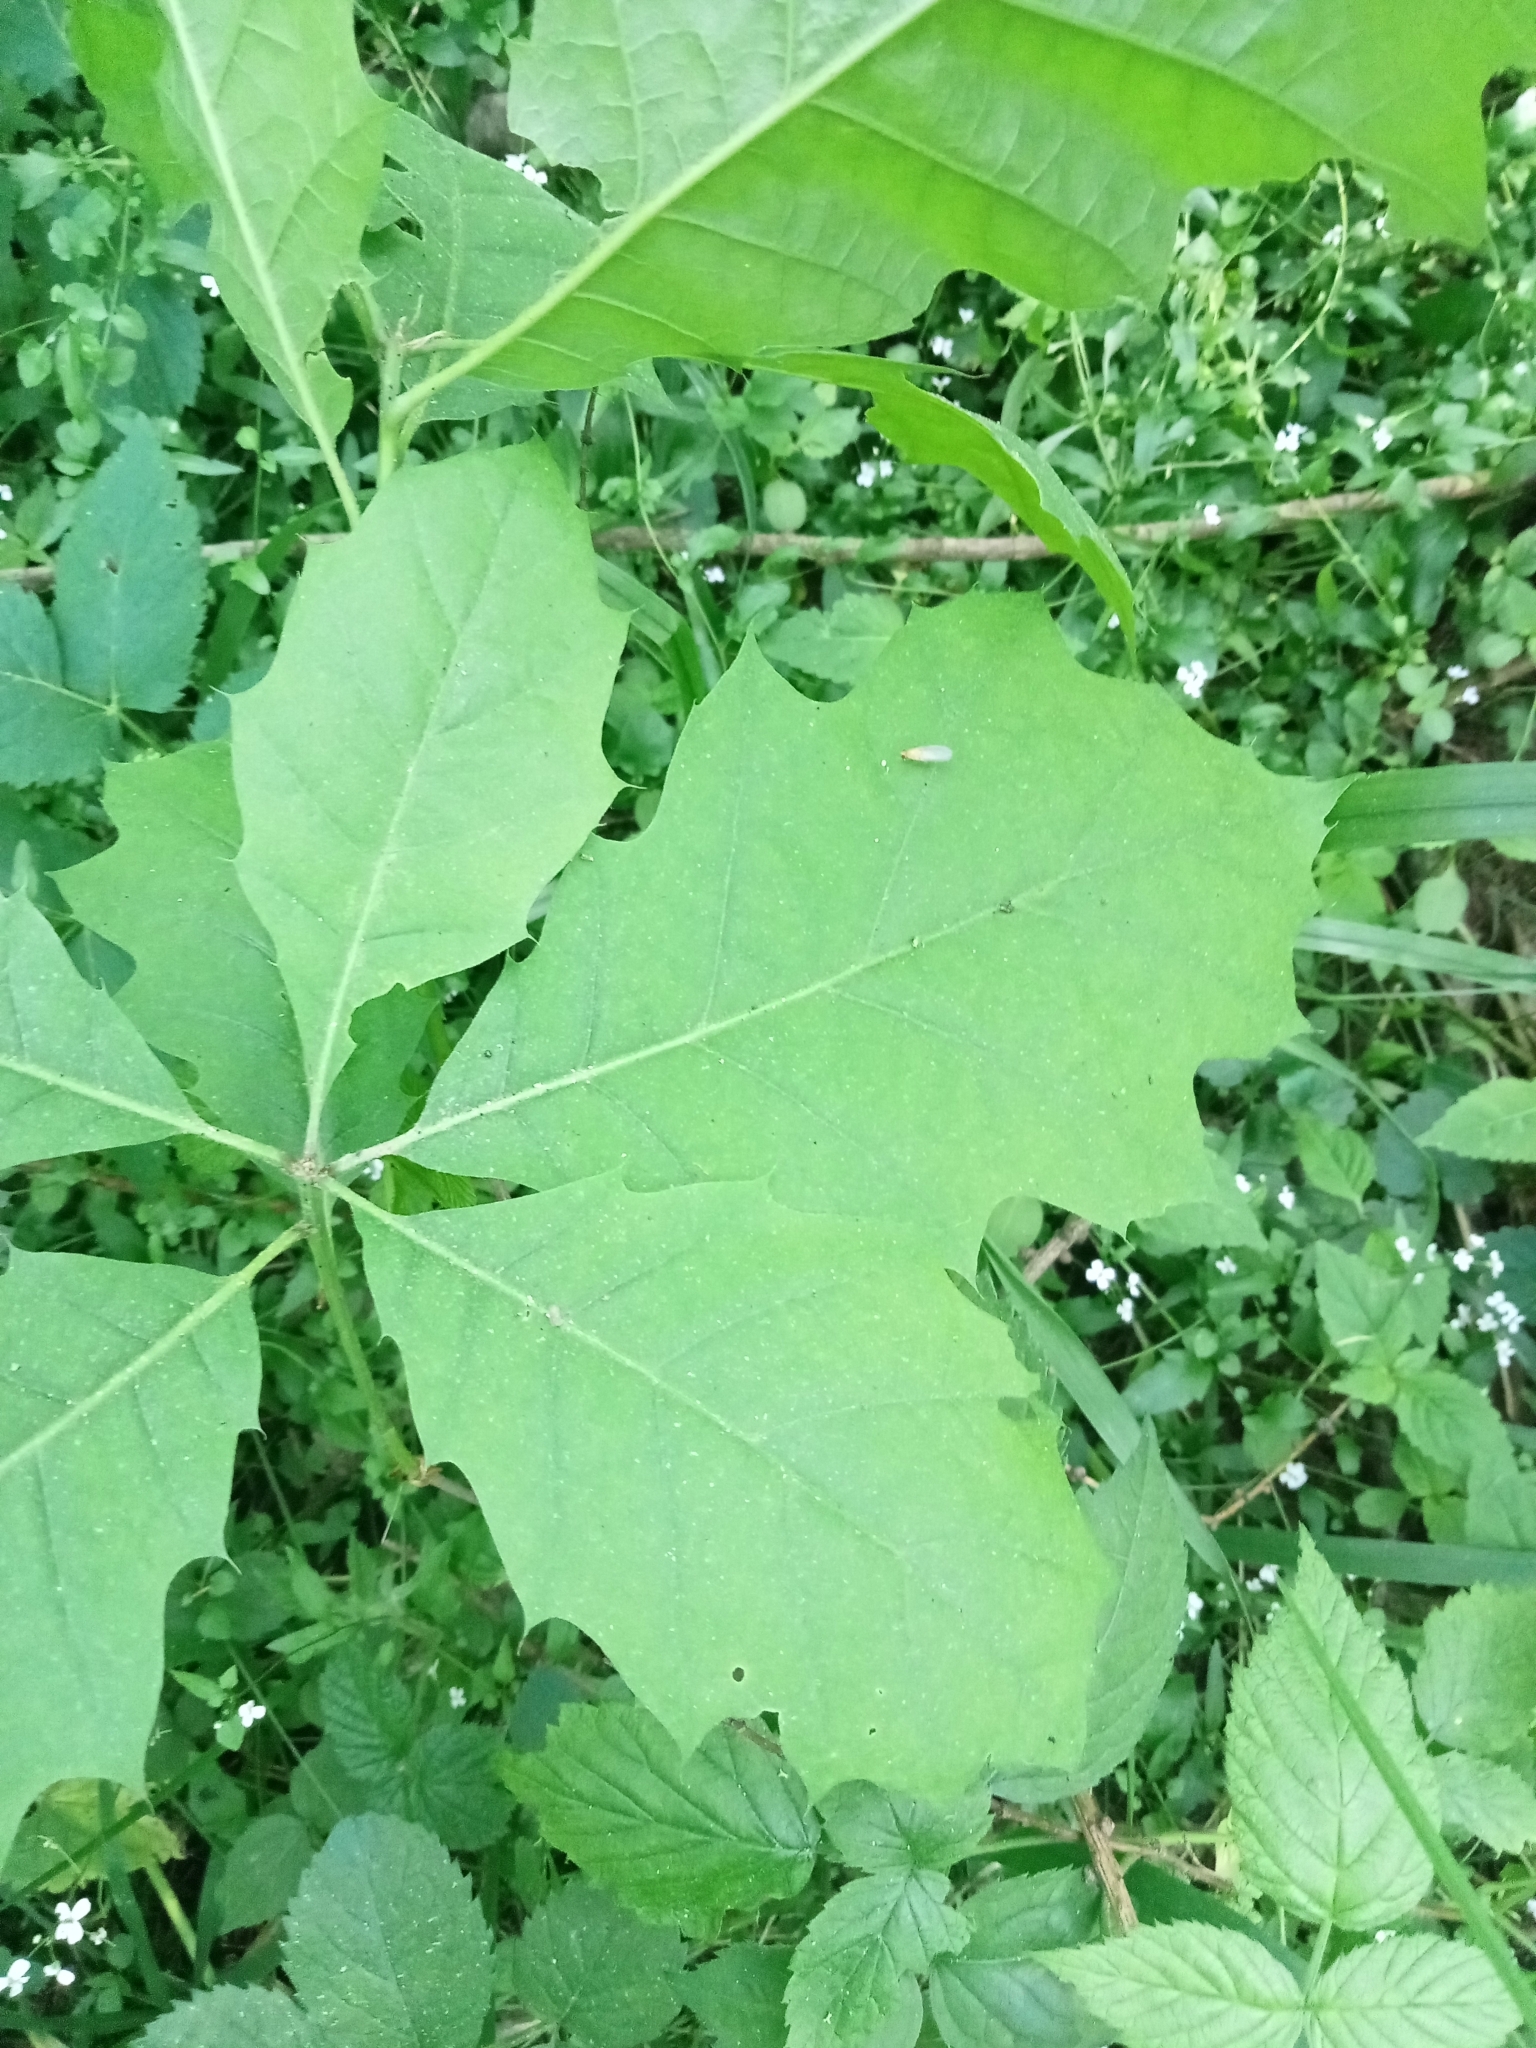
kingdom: Plantae
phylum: Tracheophyta
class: Magnoliopsida
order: Fagales
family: Fagaceae
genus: Quercus
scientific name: Quercus rubra
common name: Red oak
